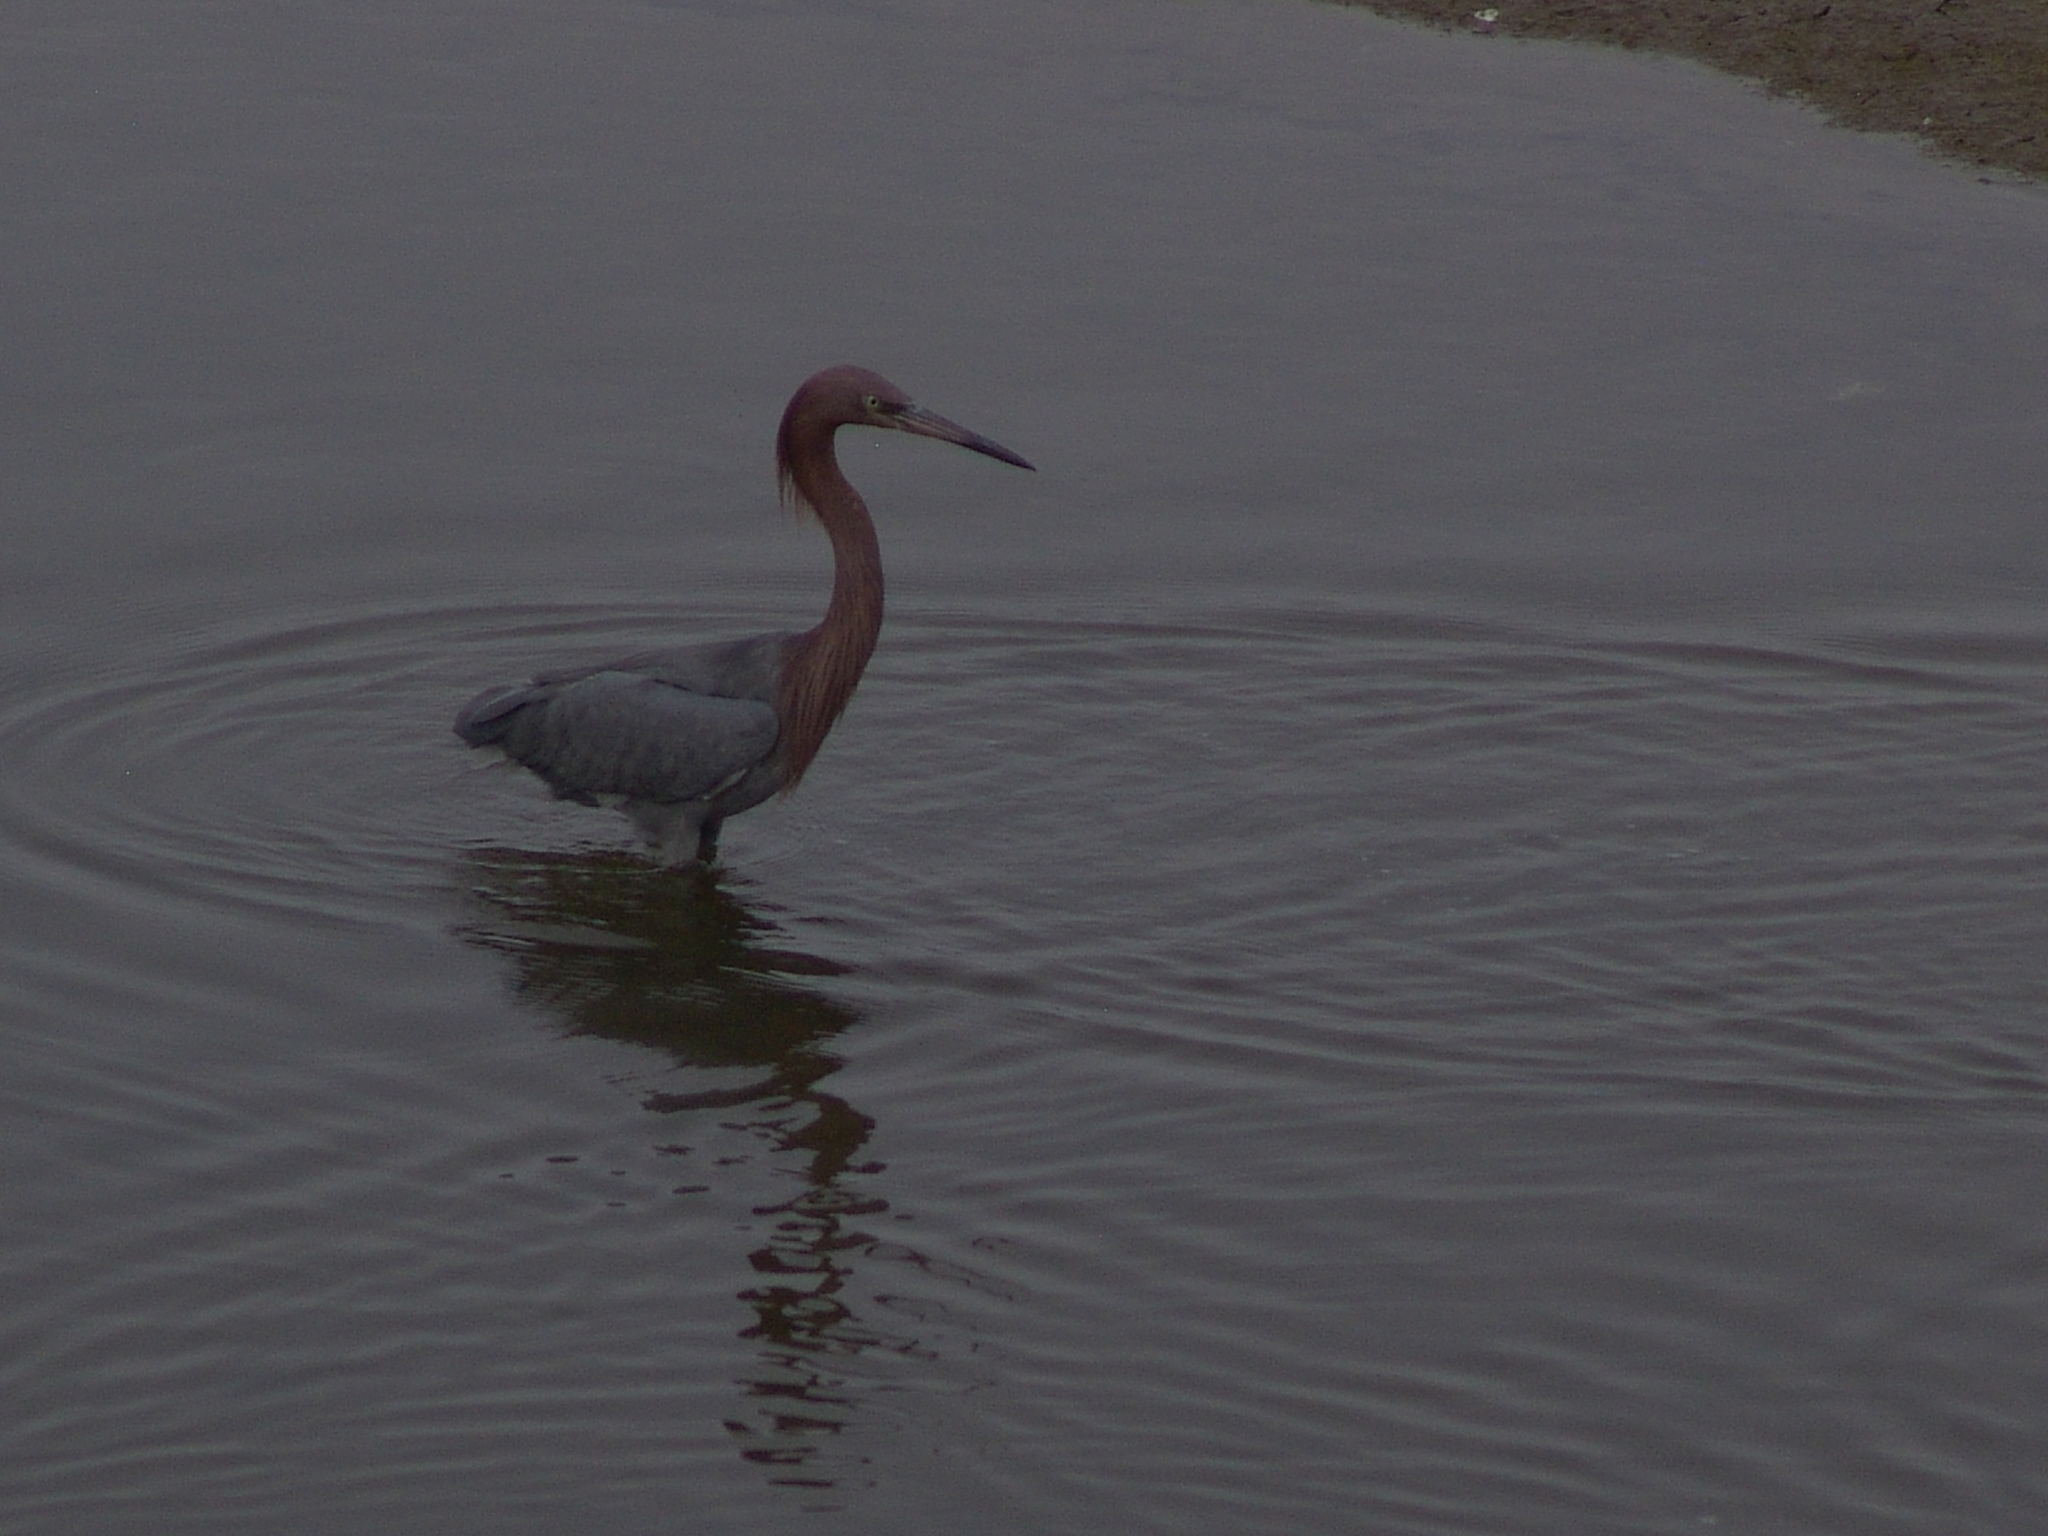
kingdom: Animalia
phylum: Chordata
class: Aves
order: Pelecaniformes
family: Ardeidae
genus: Egretta
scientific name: Egretta rufescens
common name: Reddish egret
